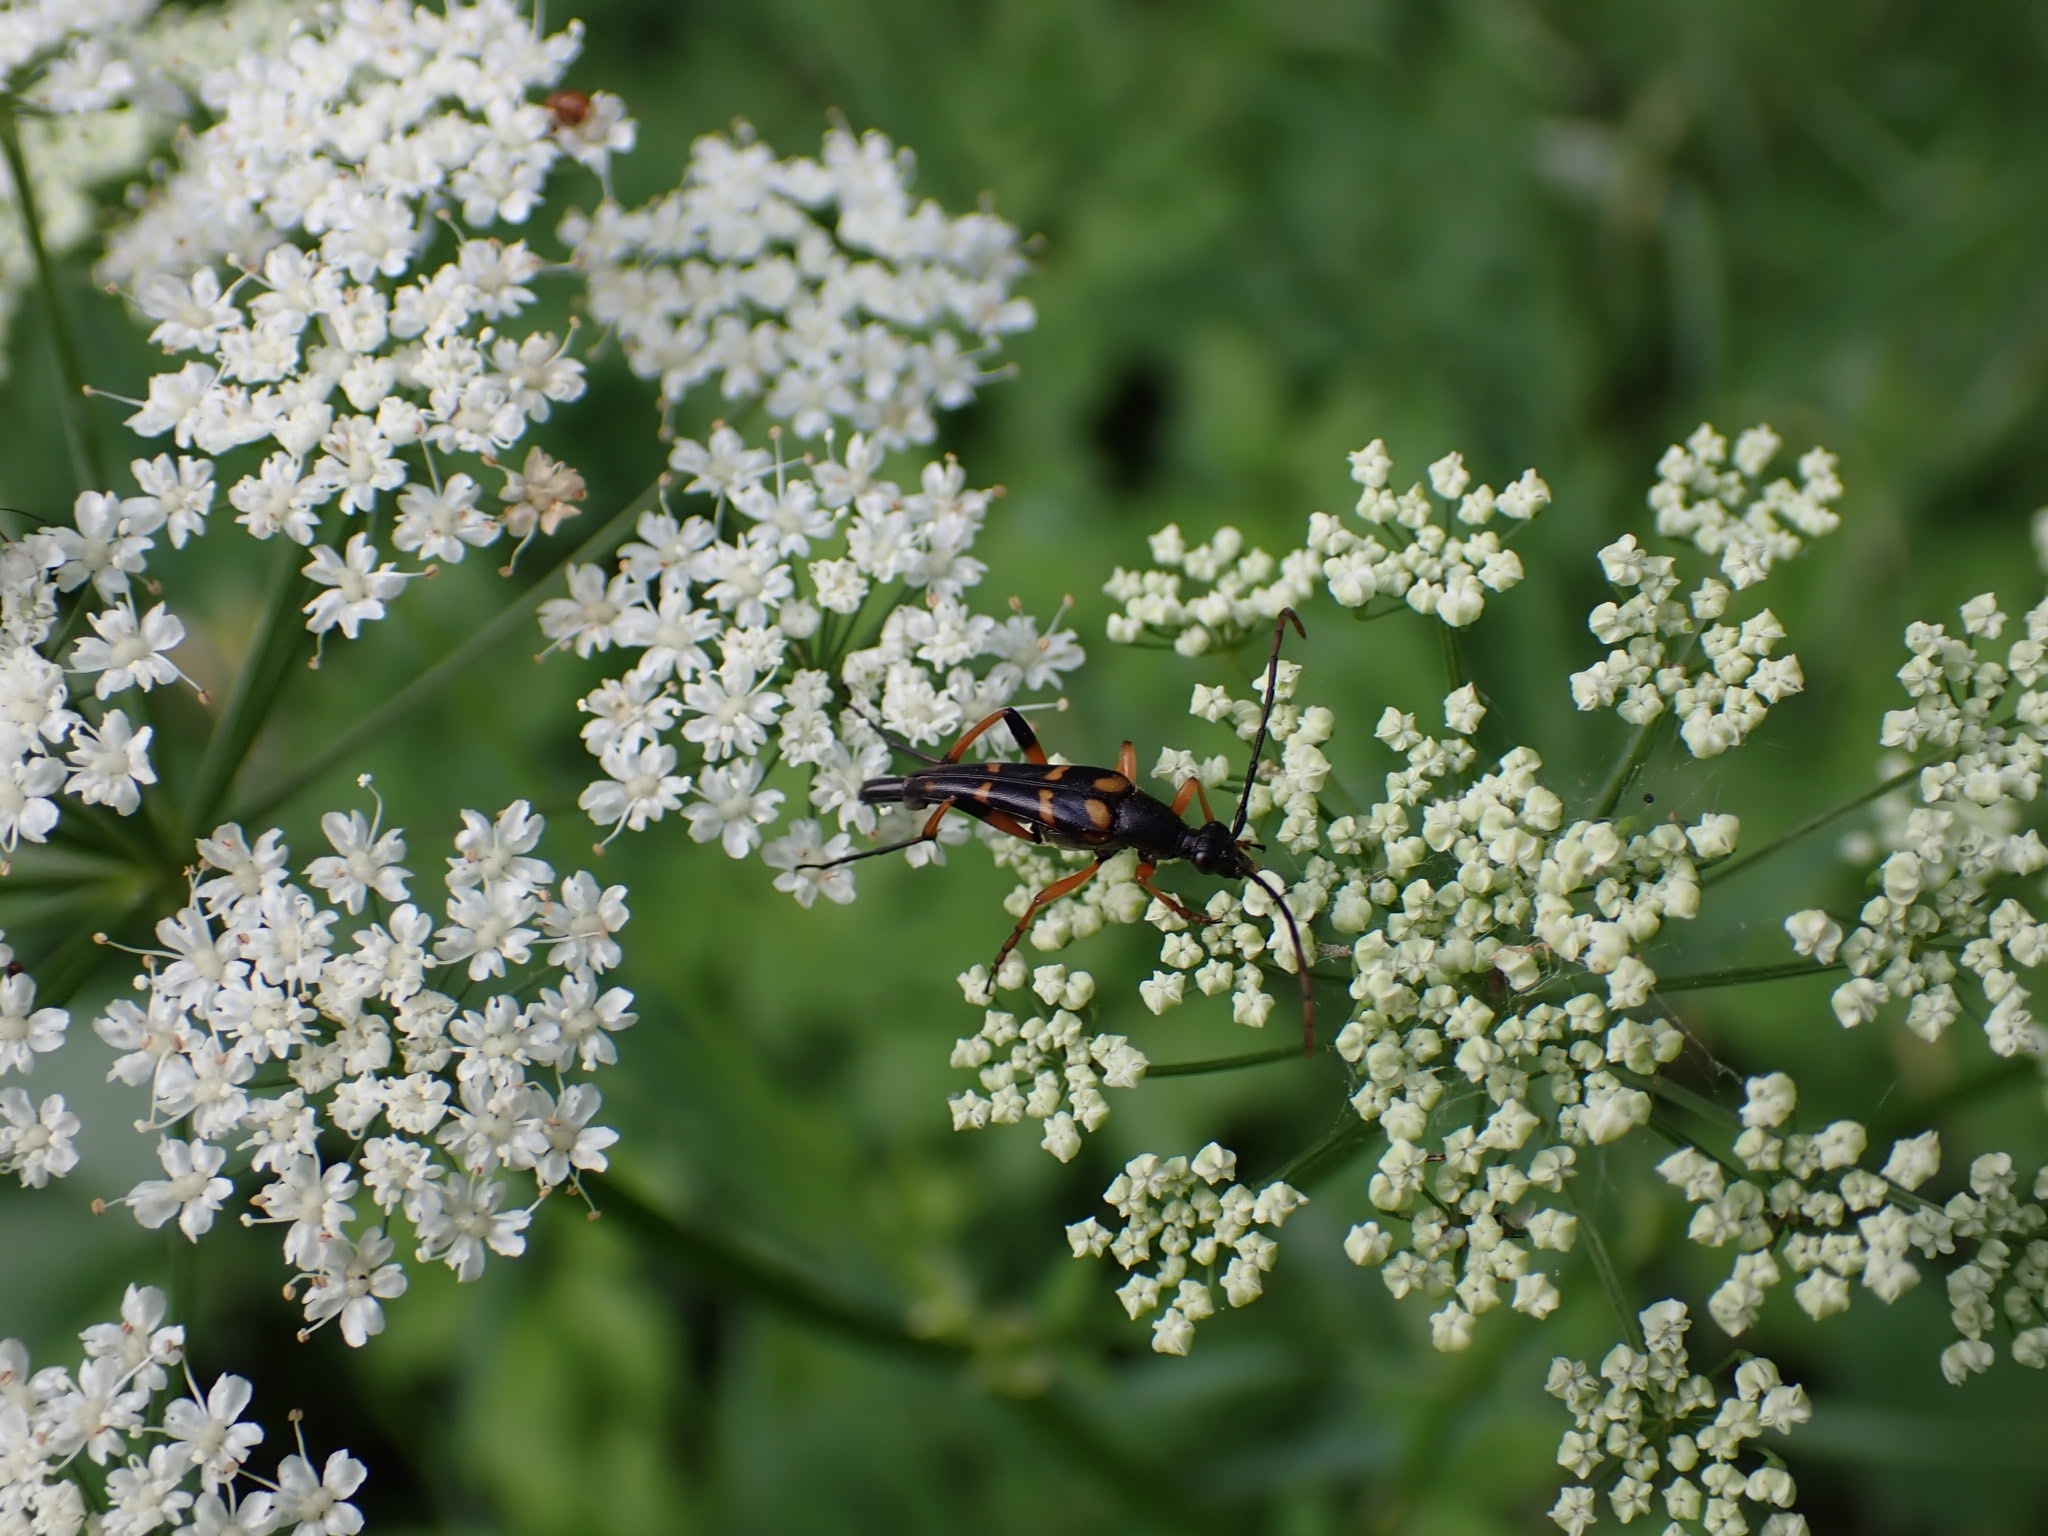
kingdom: Animalia
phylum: Arthropoda
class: Insecta
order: Coleoptera
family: Cerambycidae
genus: Strangalia
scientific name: Strangalia attenuata
